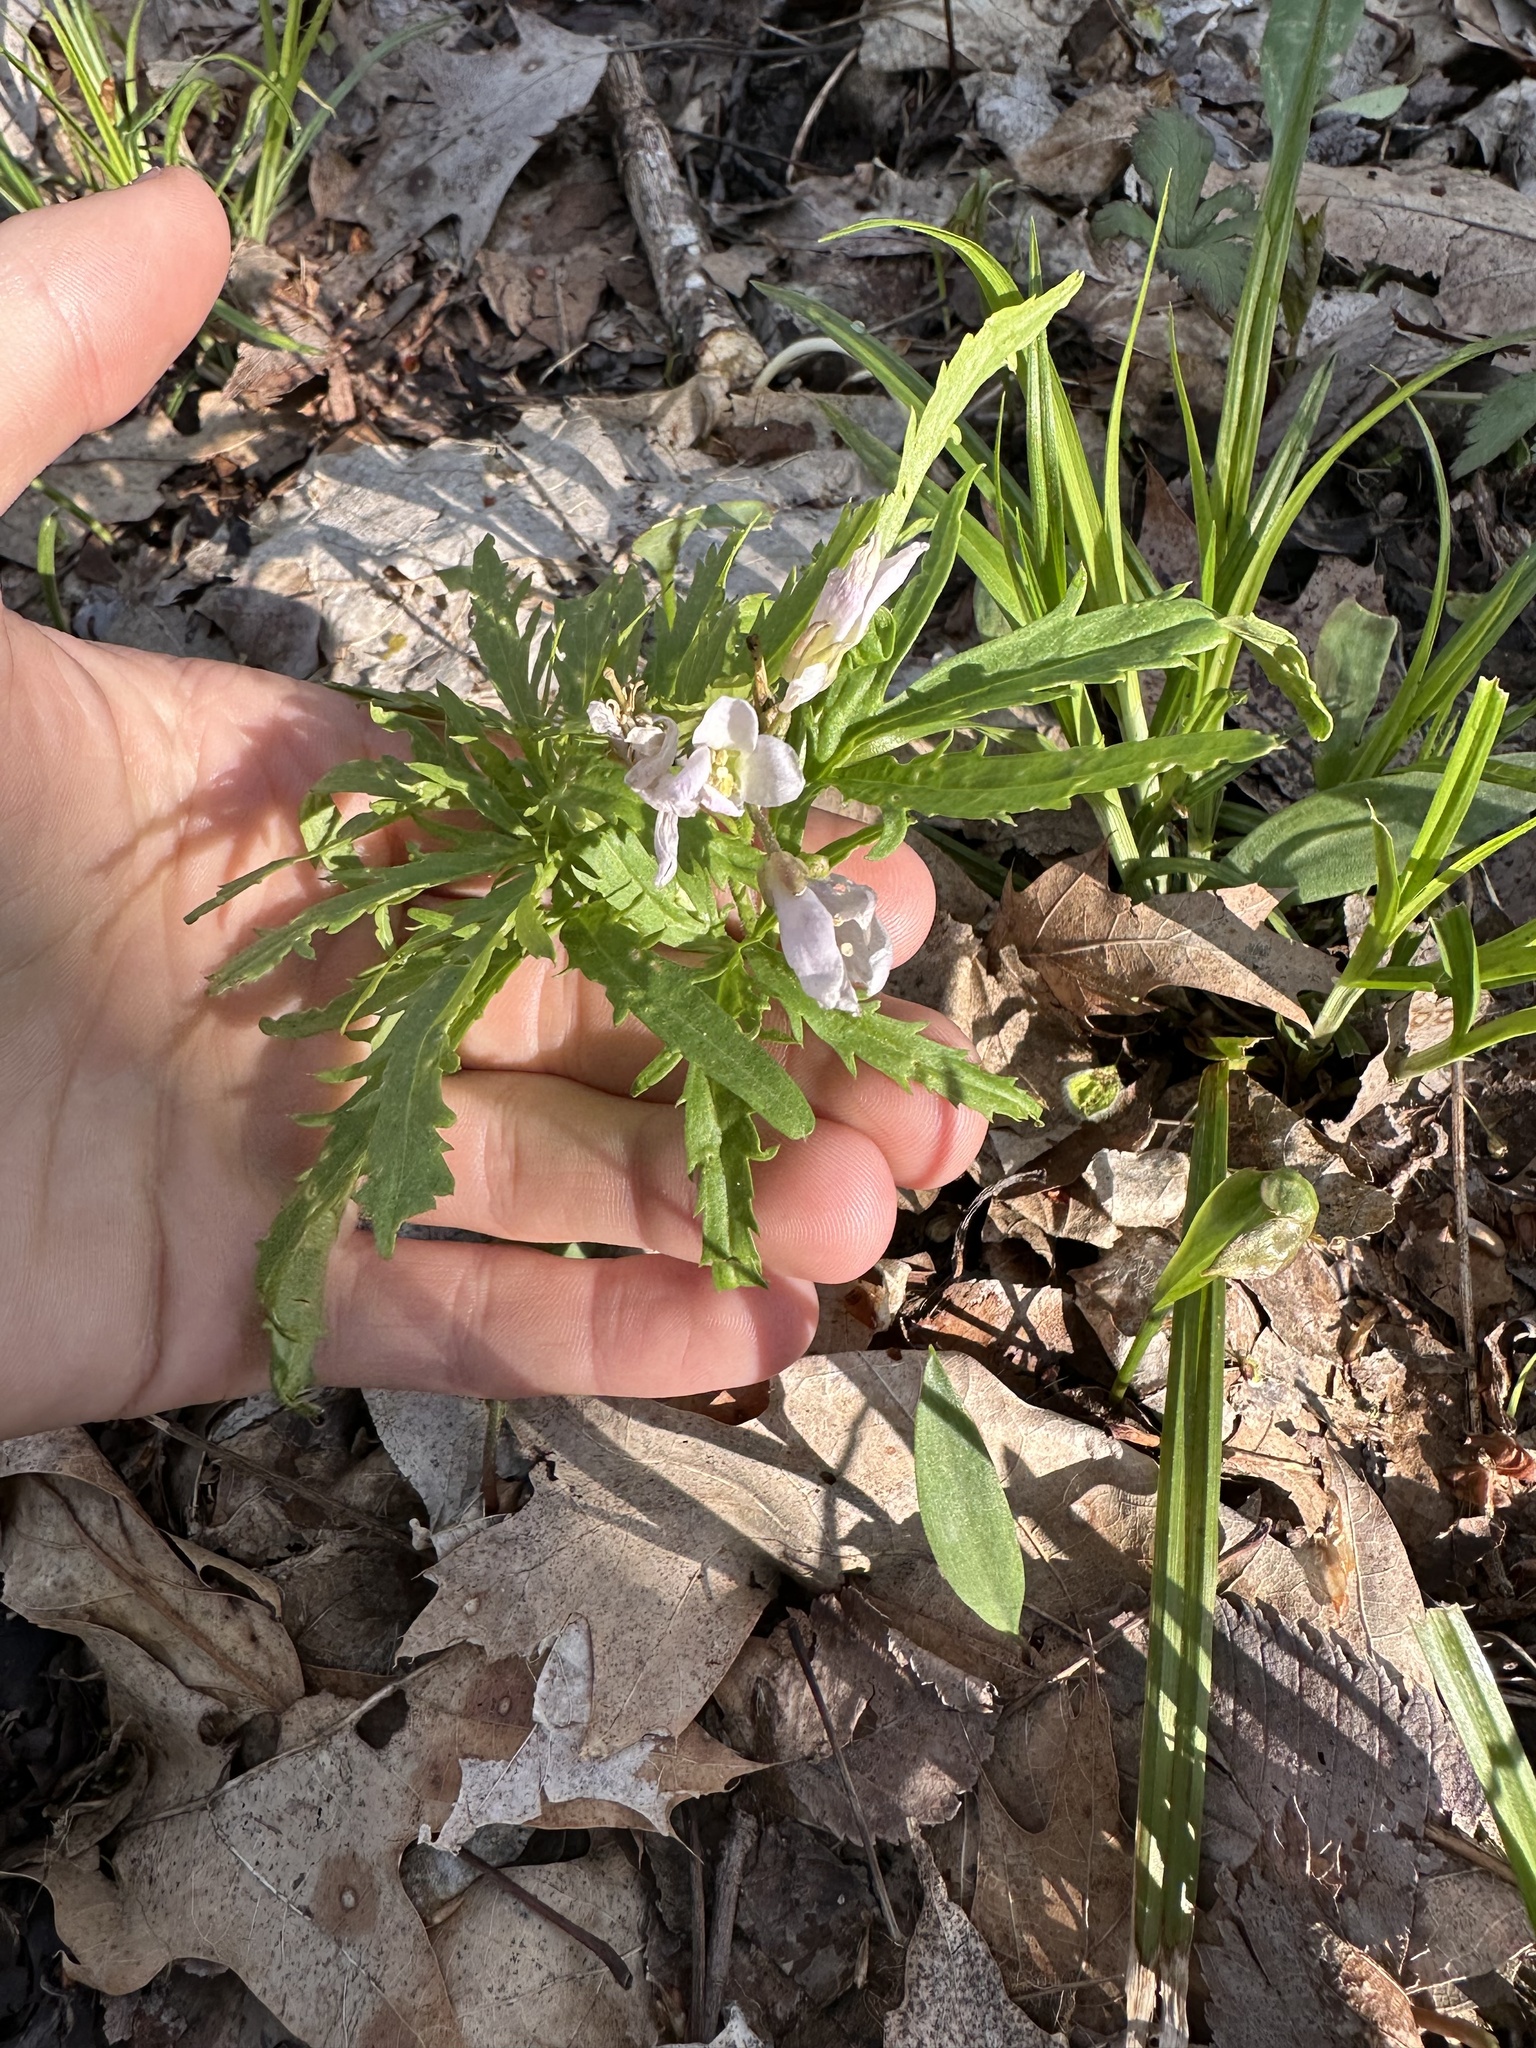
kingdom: Plantae
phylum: Tracheophyta
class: Magnoliopsida
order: Brassicales
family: Brassicaceae
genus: Cardamine
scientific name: Cardamine concatenata
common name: Cut-leaf toothcup
